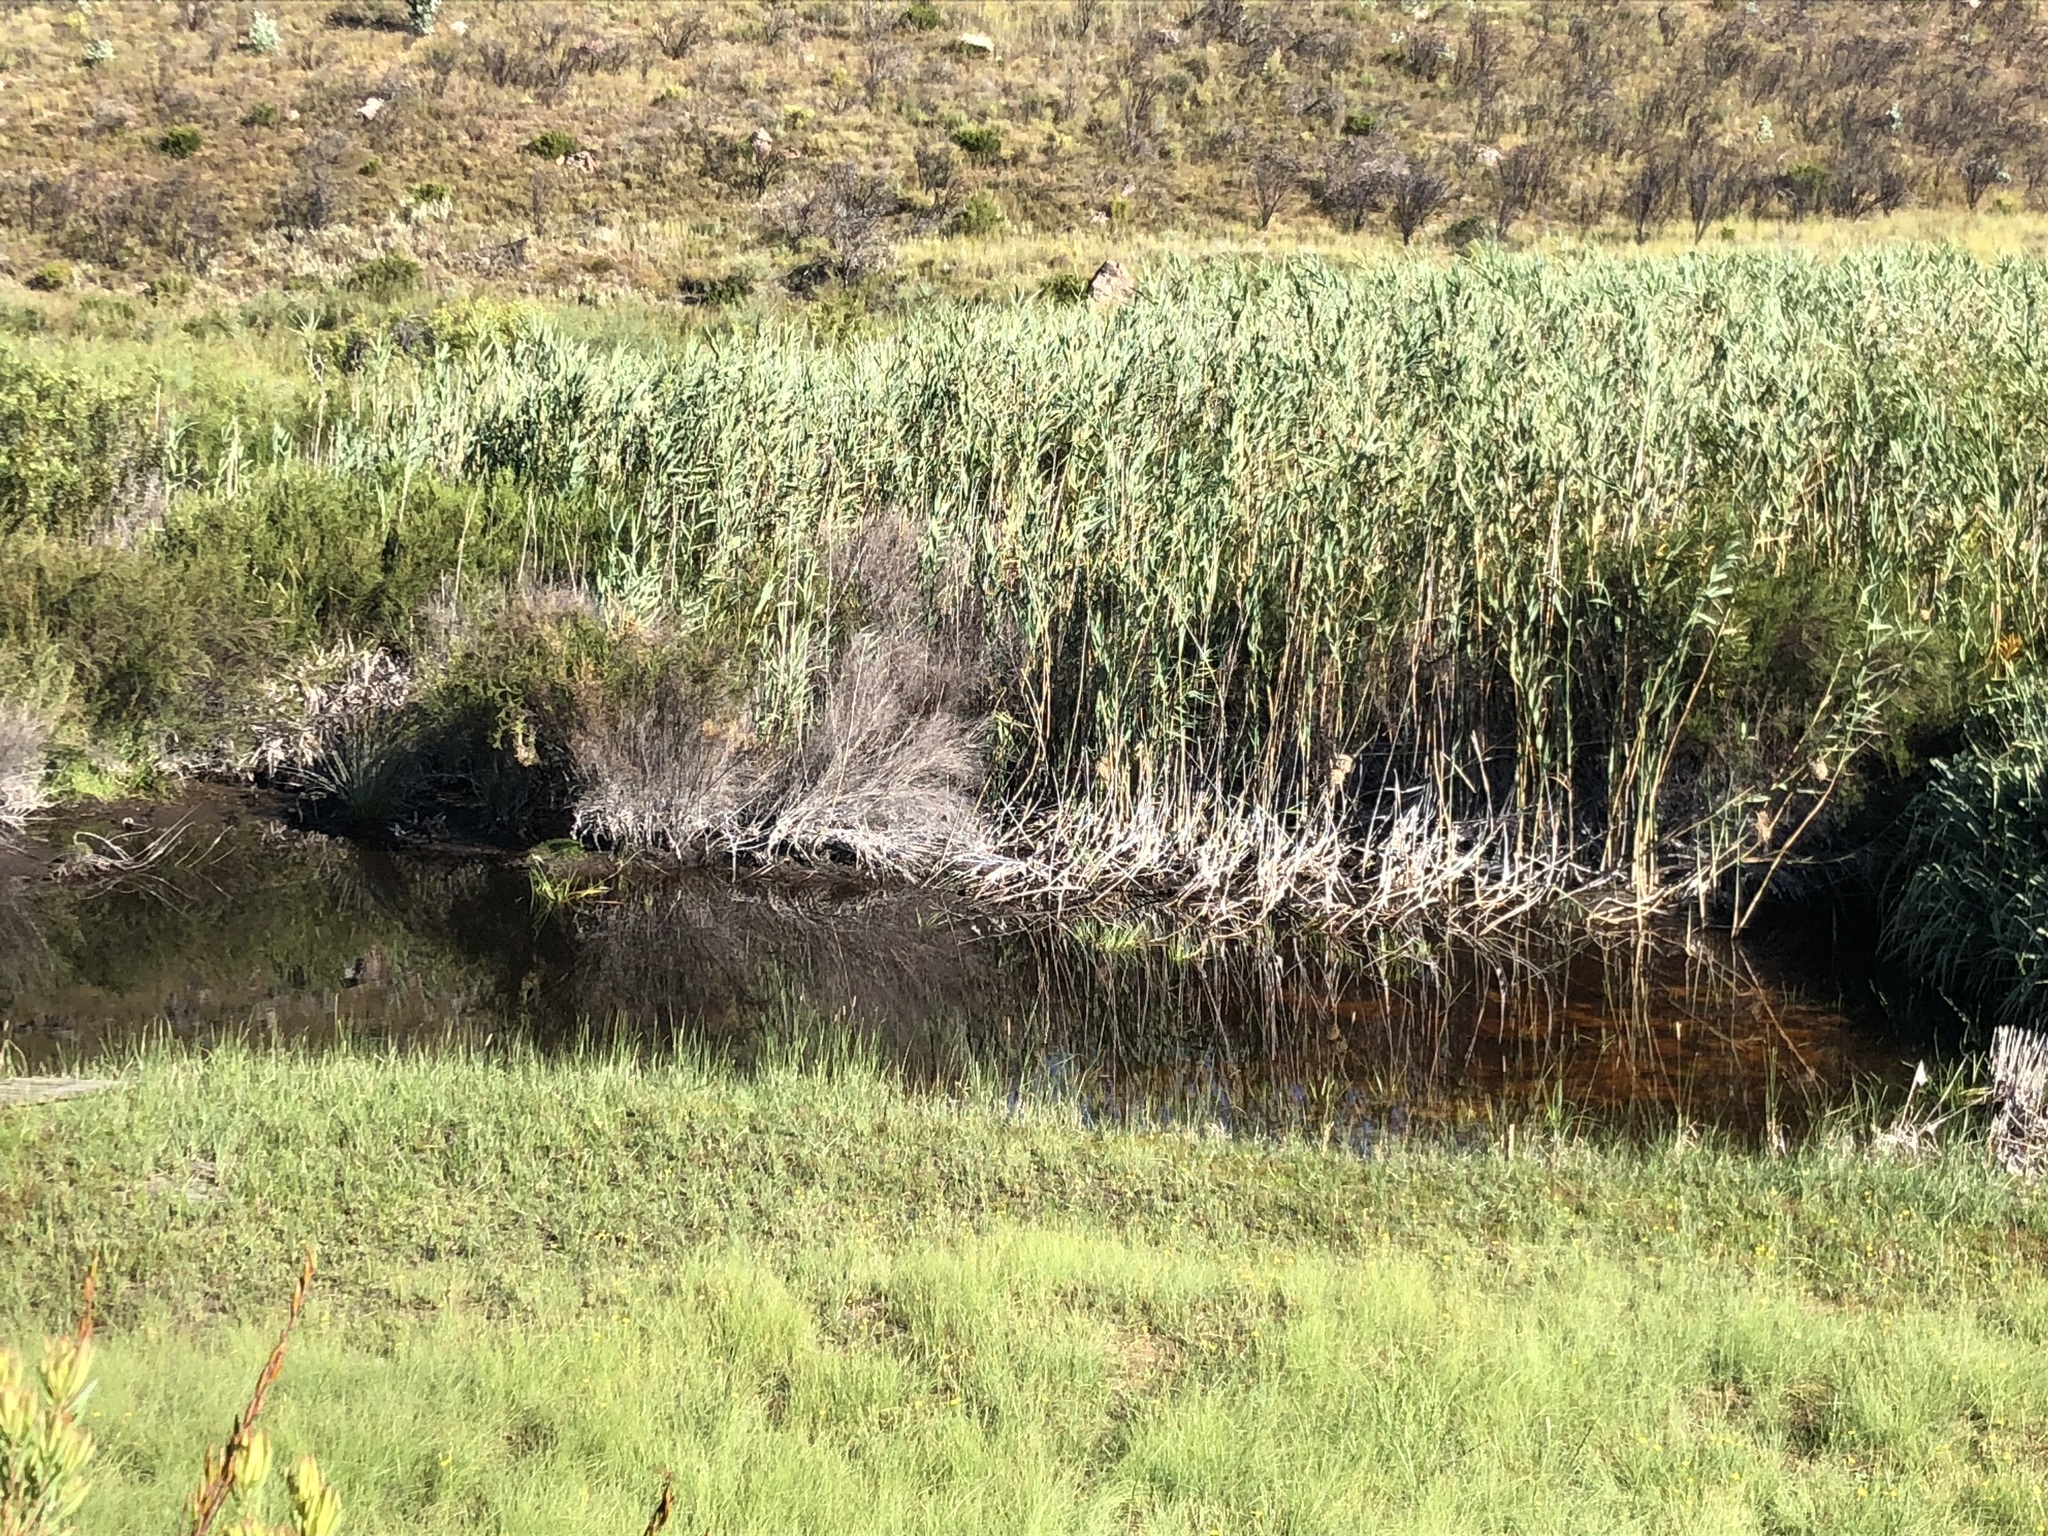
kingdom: Plantae
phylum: Tracheophyta
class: Liliopsida
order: Poales
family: Poaceae
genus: Phragmites
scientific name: Phragmites australis
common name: Common reed
